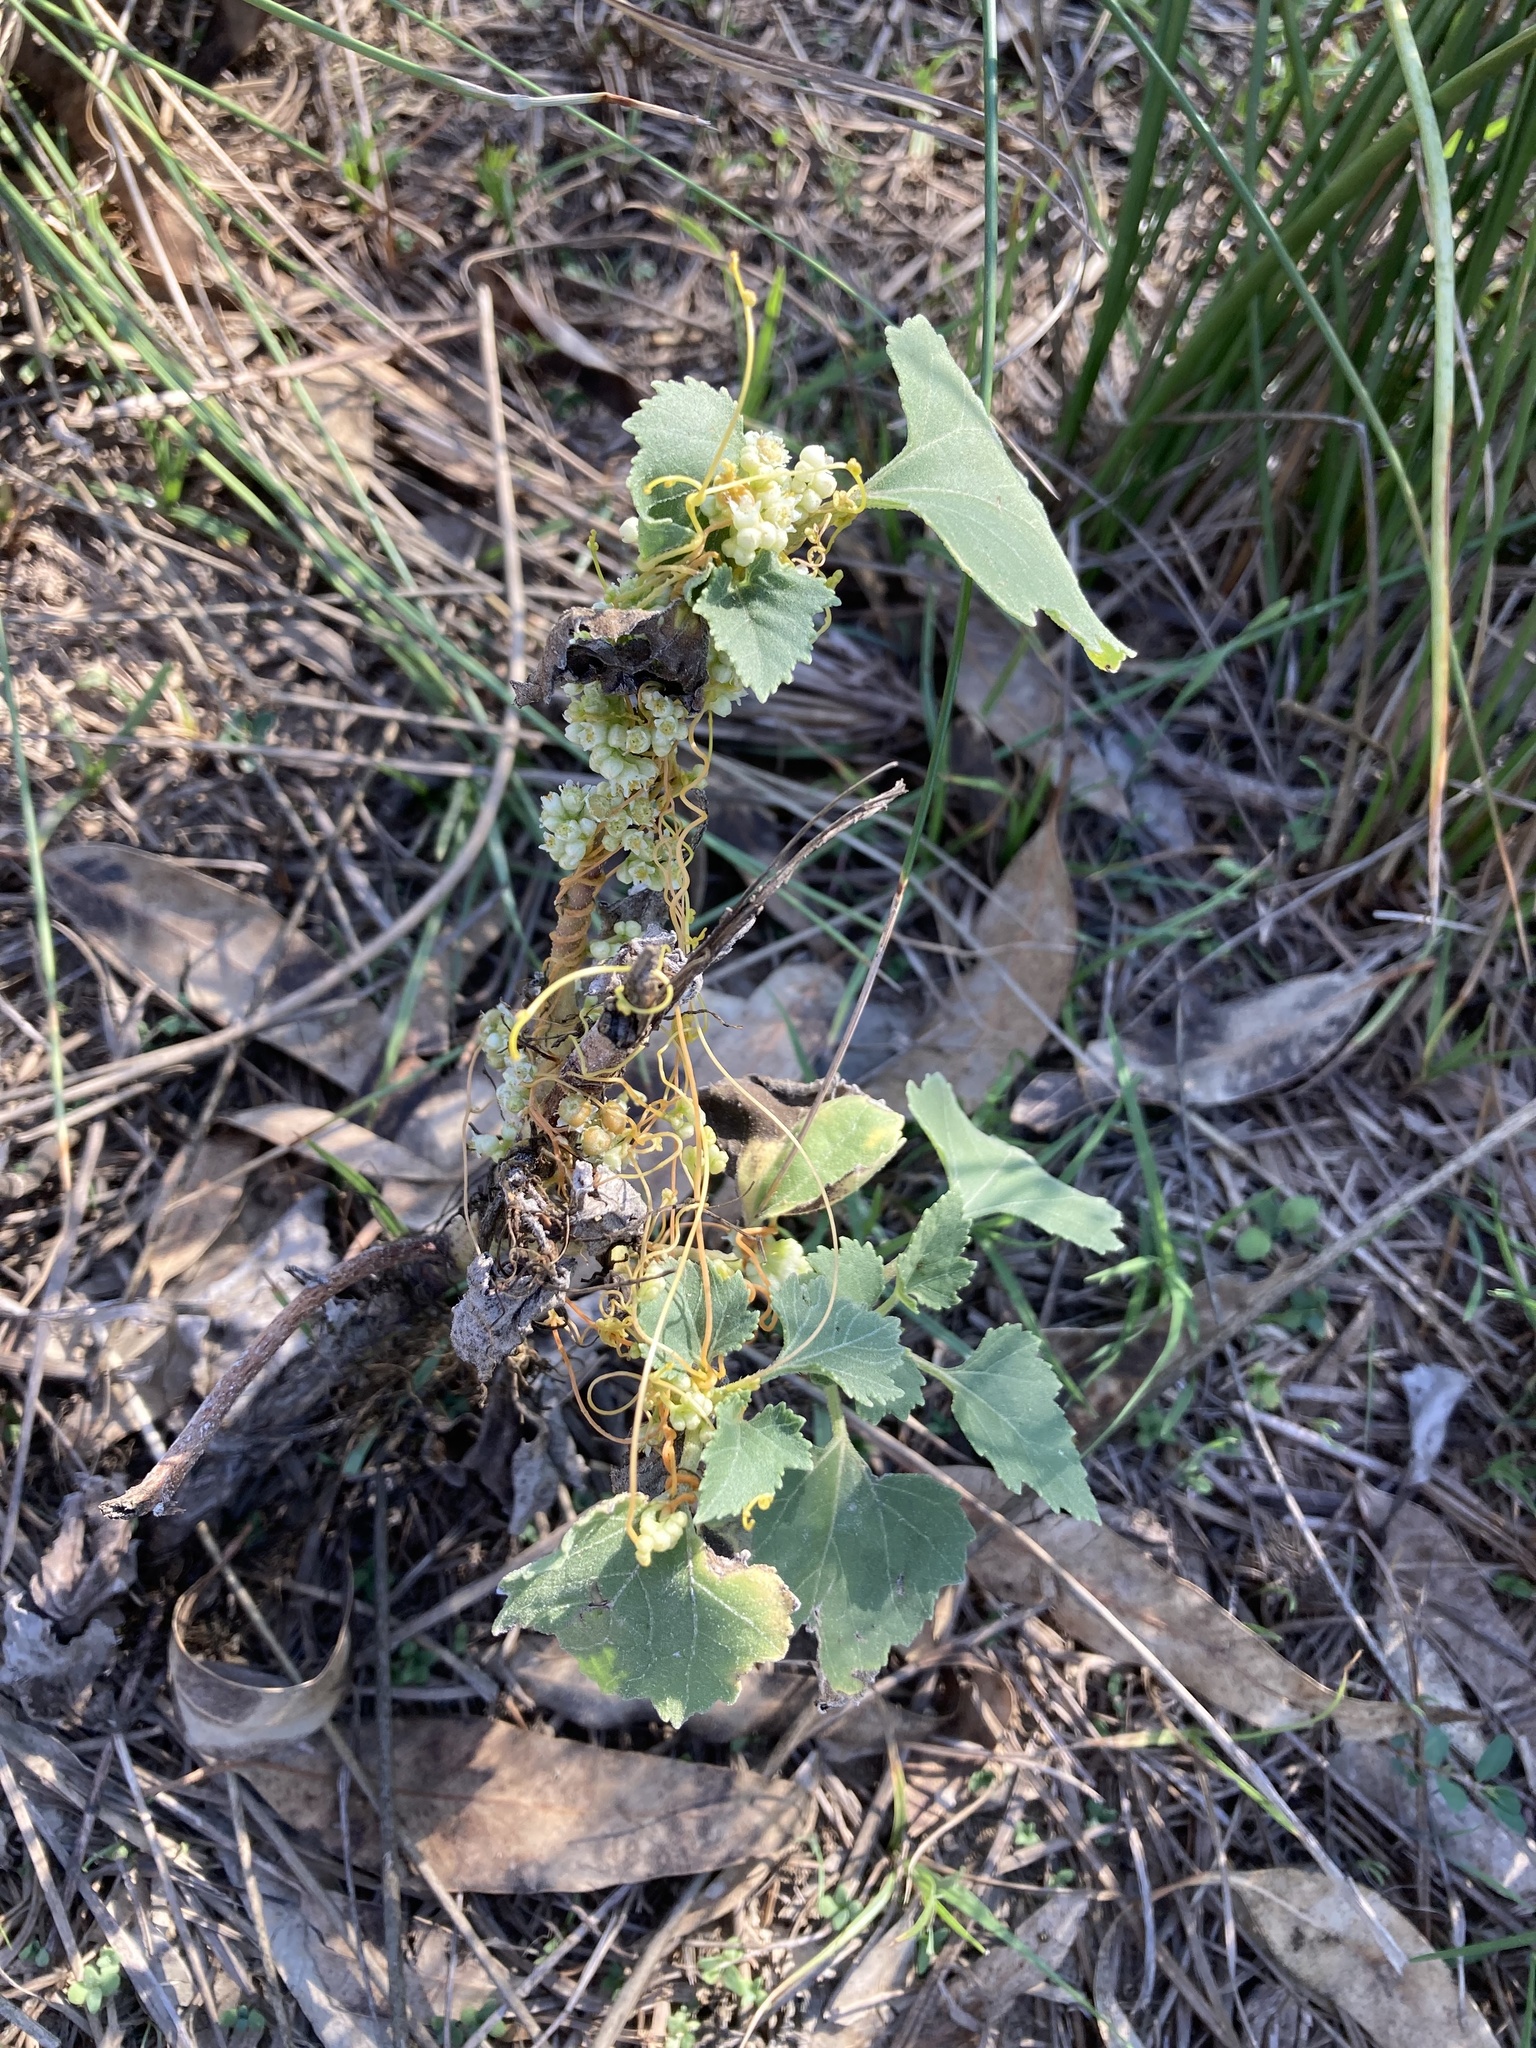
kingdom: Plantae
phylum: Tracheophyta
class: Magnoliopsida
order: Asterales
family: Asteraceae
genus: Xanthium
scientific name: Xanthium strumarium
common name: Rough cocklebur
